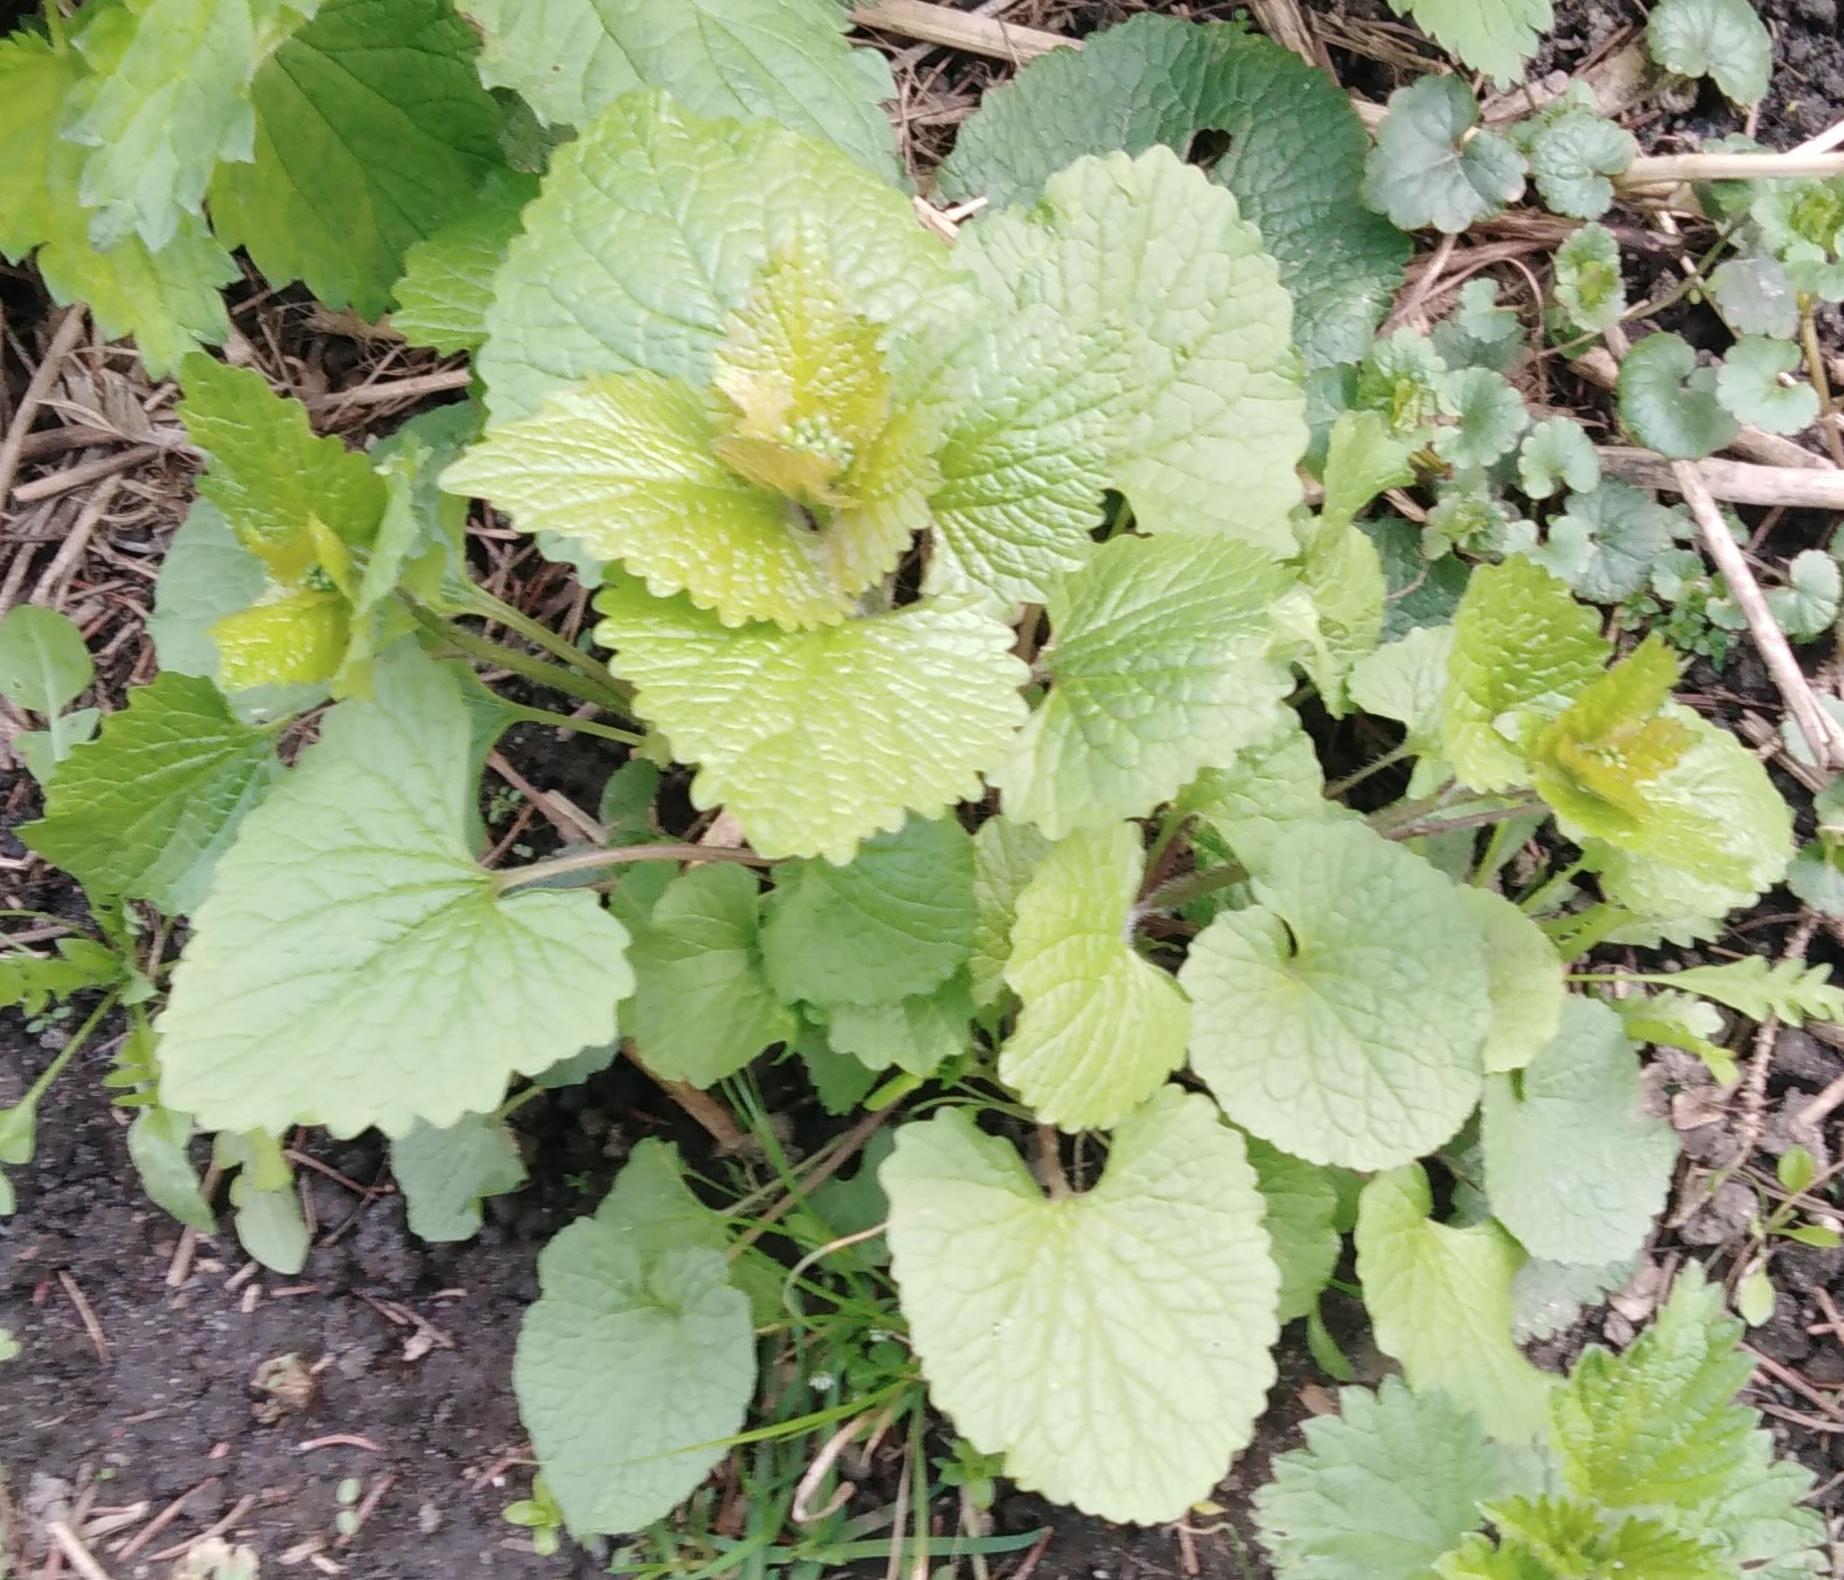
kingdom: Plantae
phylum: Tracheophyta
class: Magnoliopsida
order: Brassicales
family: Brassicaceae
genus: Alliaria
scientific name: Alliaria petiolata
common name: Garlic mustard
